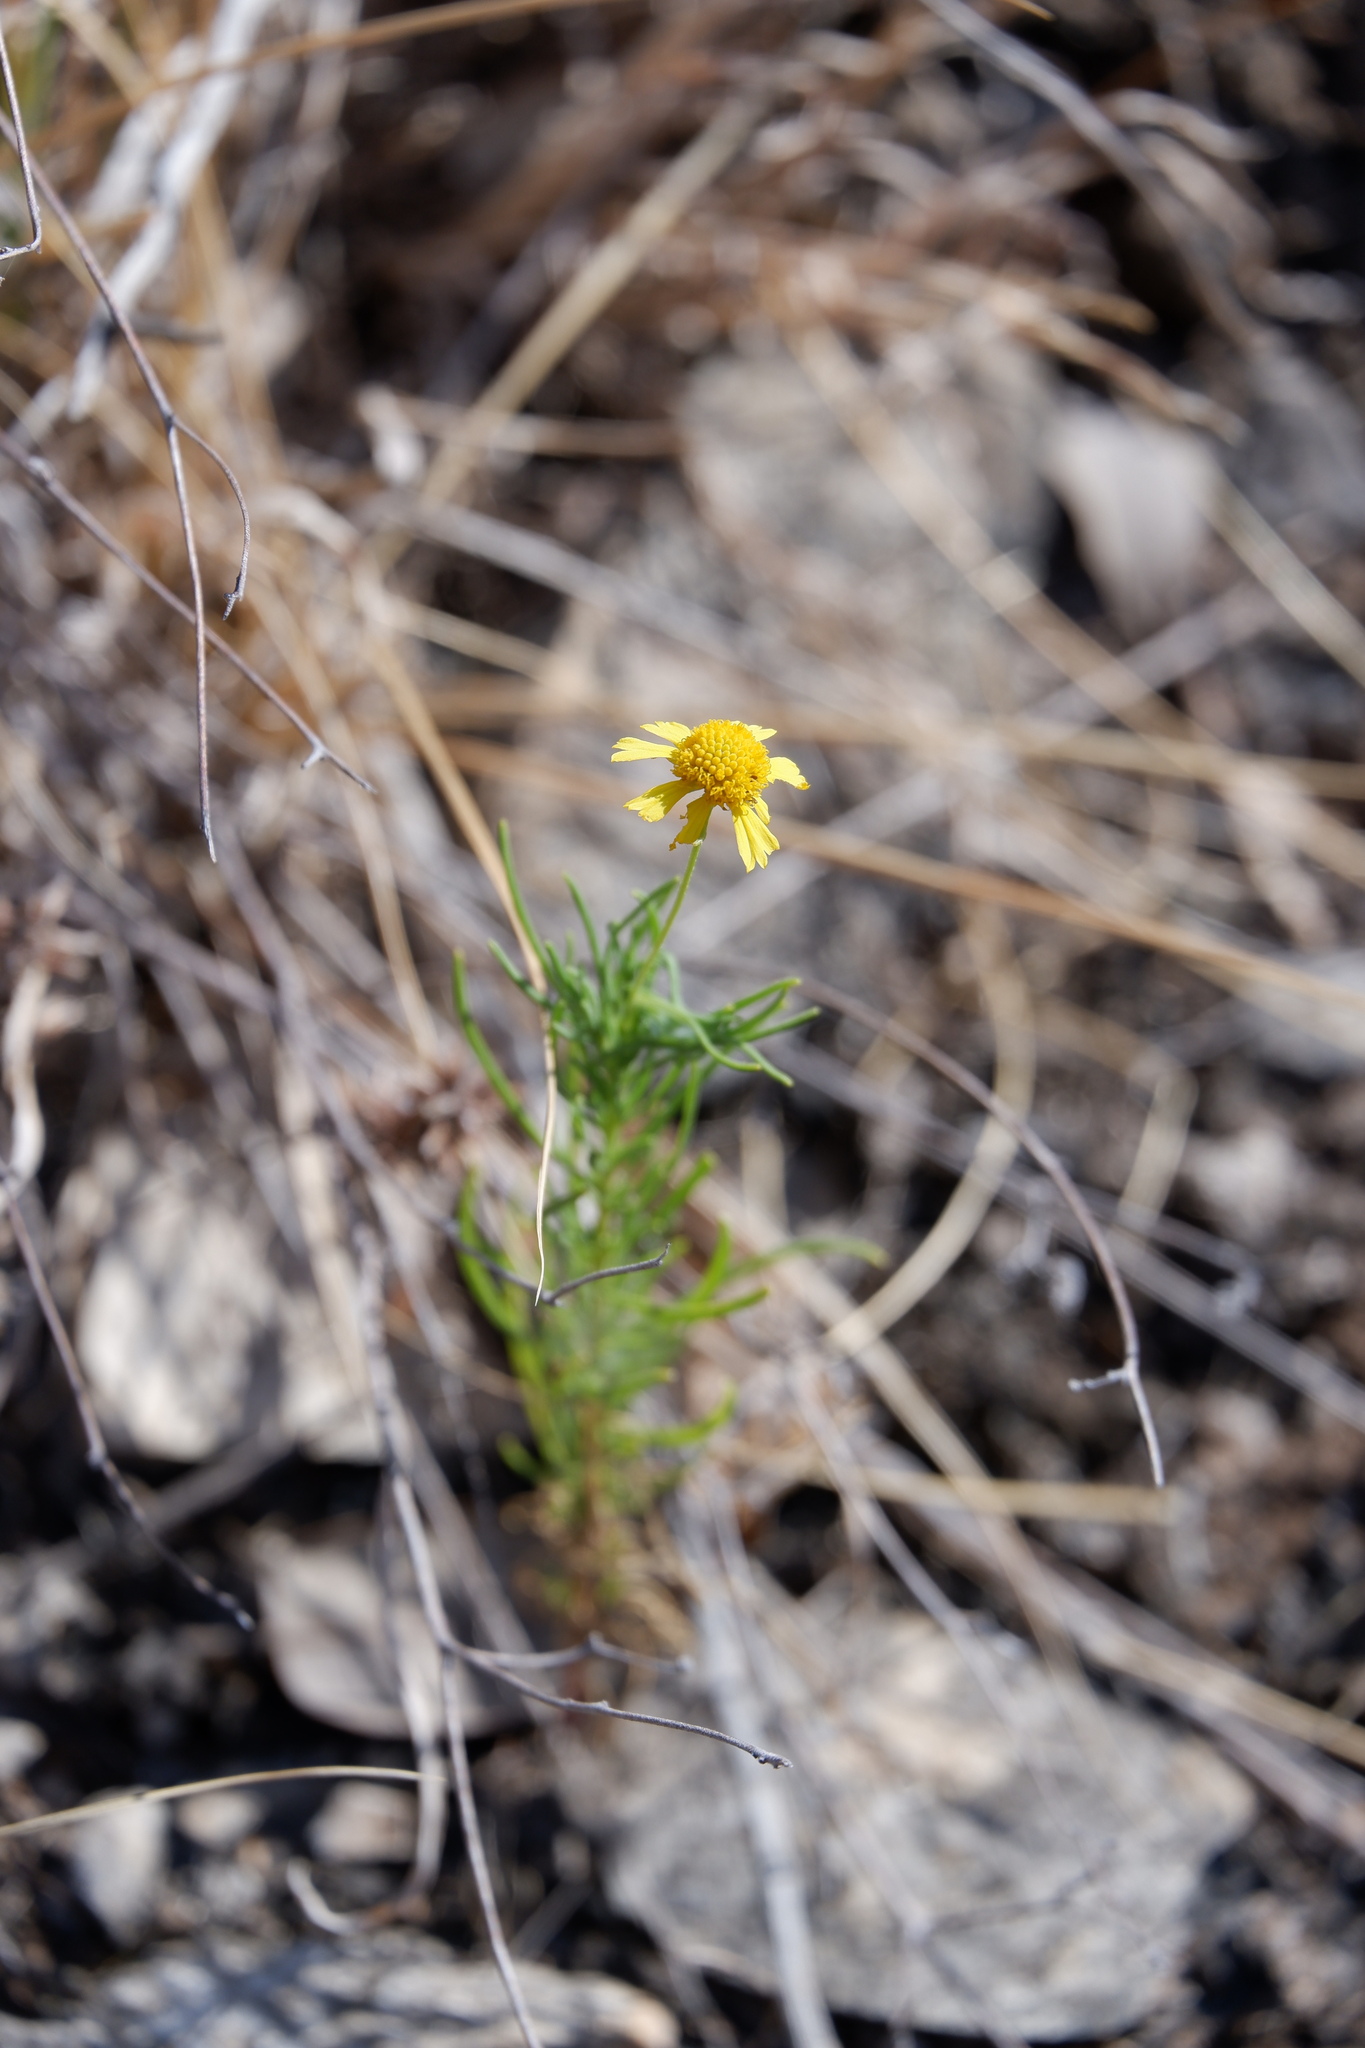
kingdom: Plantae
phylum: Tracheophyta
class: Magnoliopsida
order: Asterales
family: Asteraceae
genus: Helenium
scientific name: Helenium amarum
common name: Bitter sneezeweed
